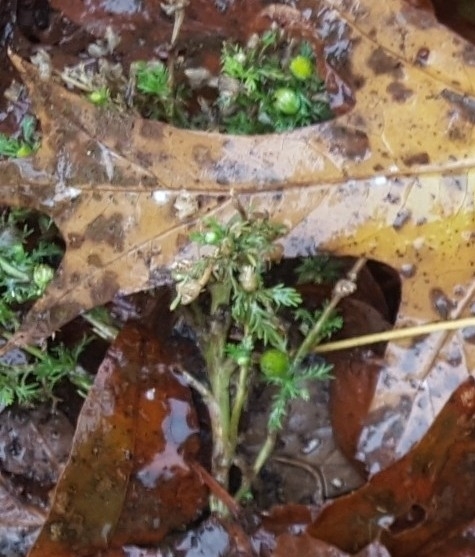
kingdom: Plantae
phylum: Tracheophyta
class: Magnoliopsida
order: Asterales
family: Asteraceae
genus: Matricaria
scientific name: Matricaria discoidea
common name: Disc mayweed
